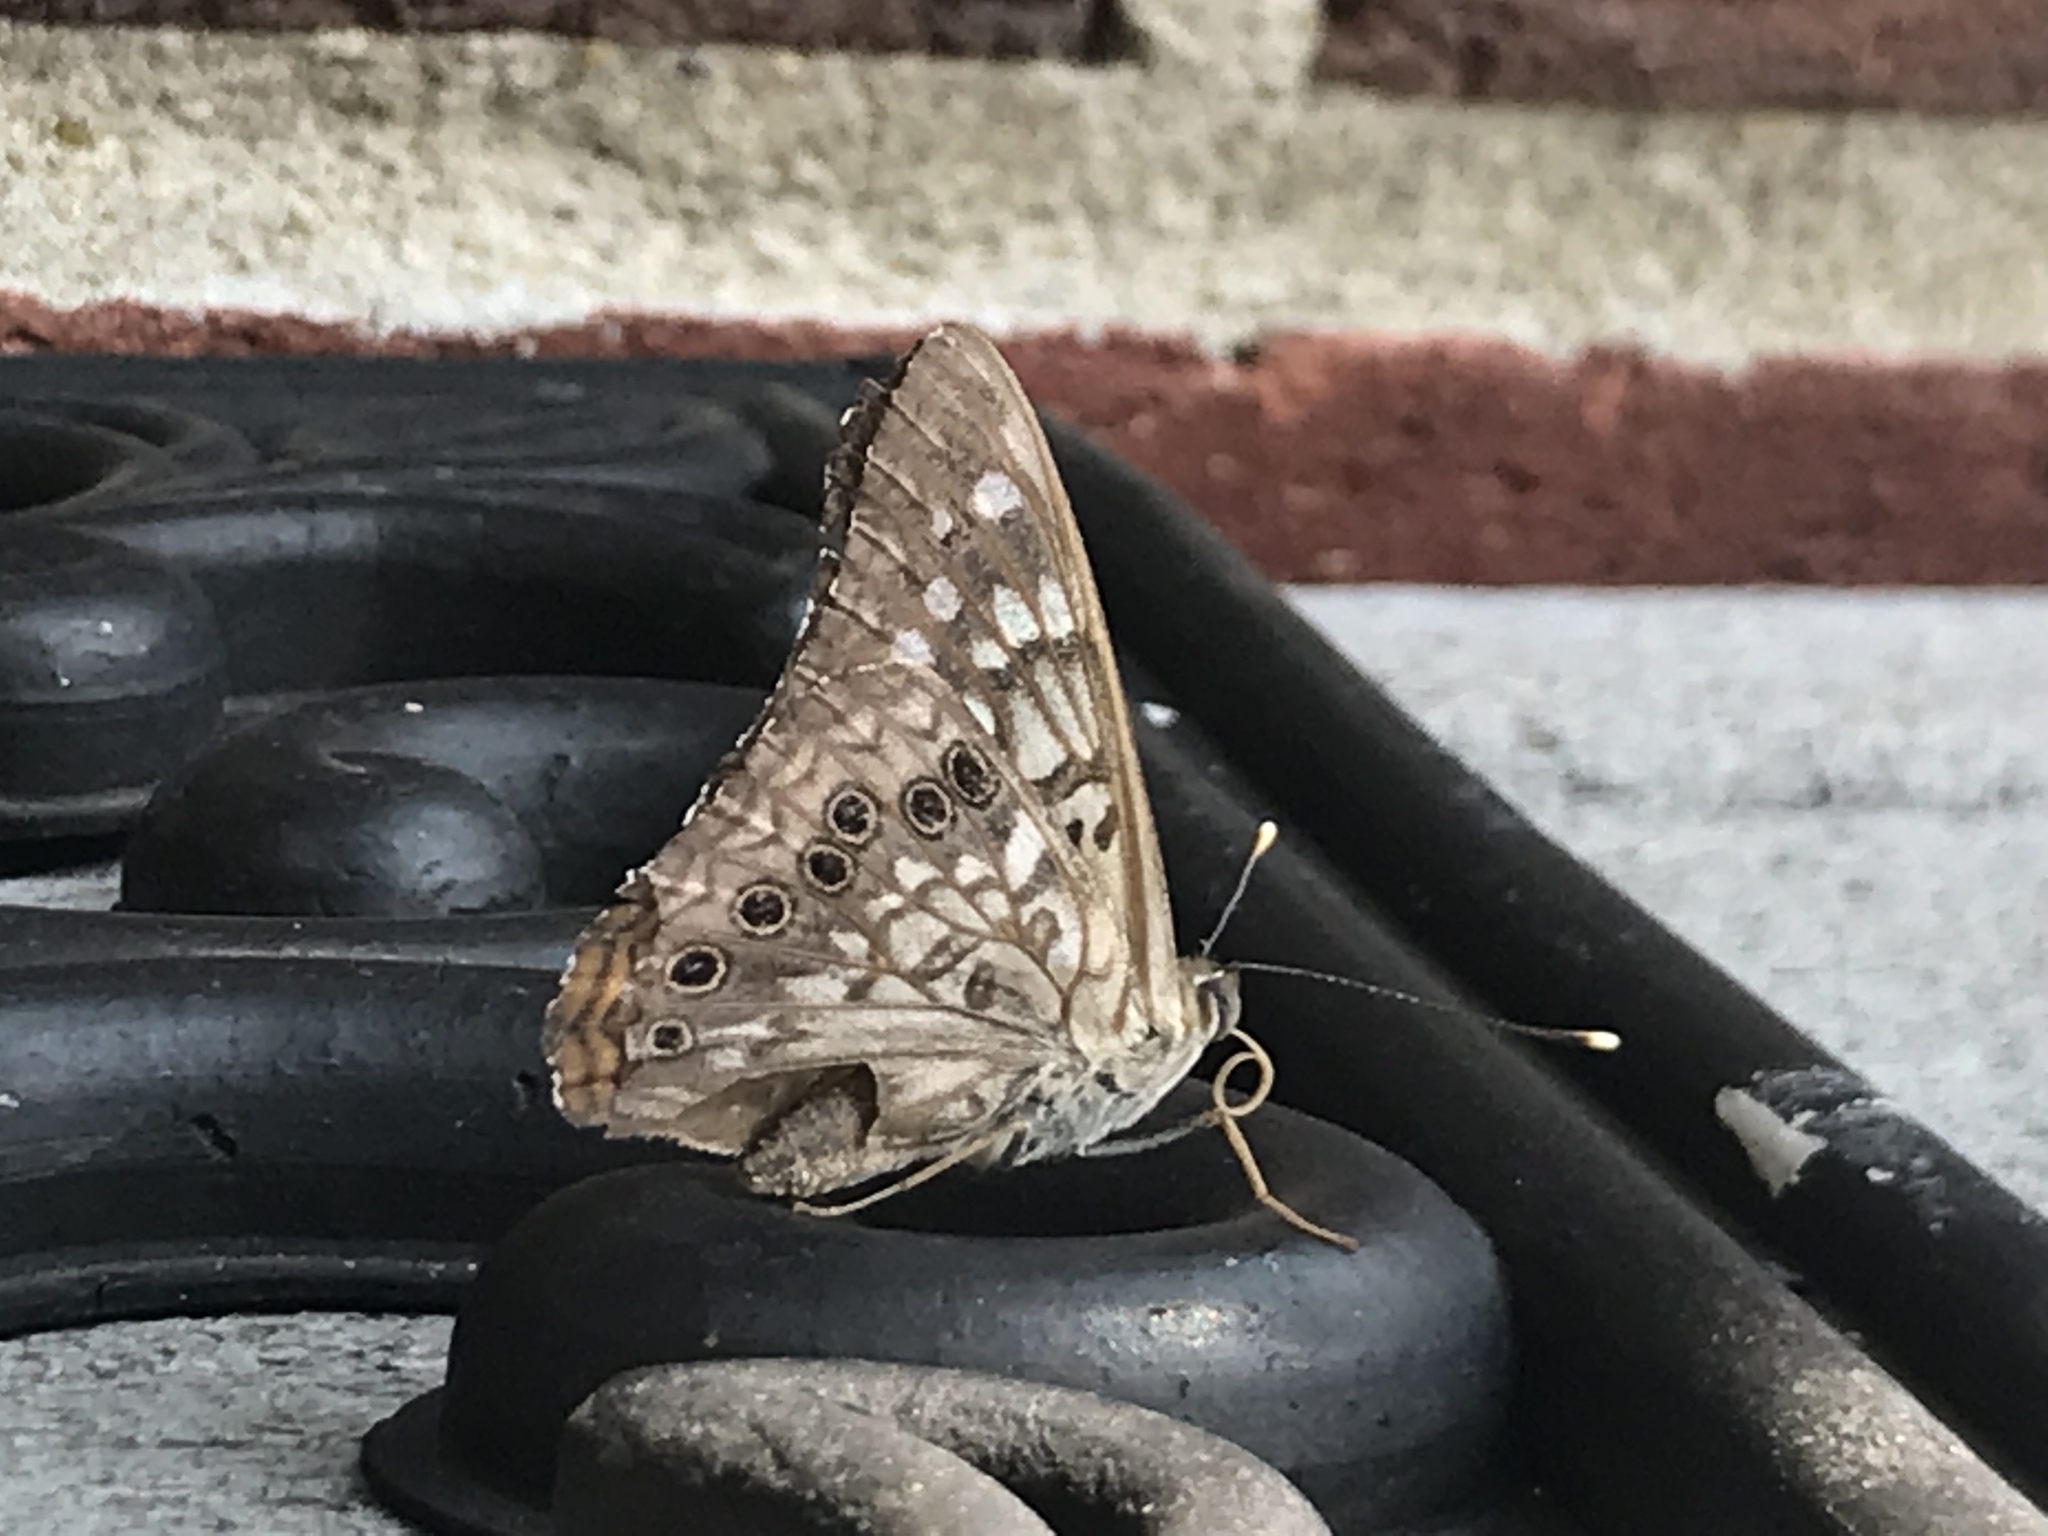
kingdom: Animalia
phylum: Arthropoda
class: Insecta
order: Lepidoptera
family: Nymphalidae
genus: Asterocampa
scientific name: Asterocampa celtis
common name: Hackberry emperor
